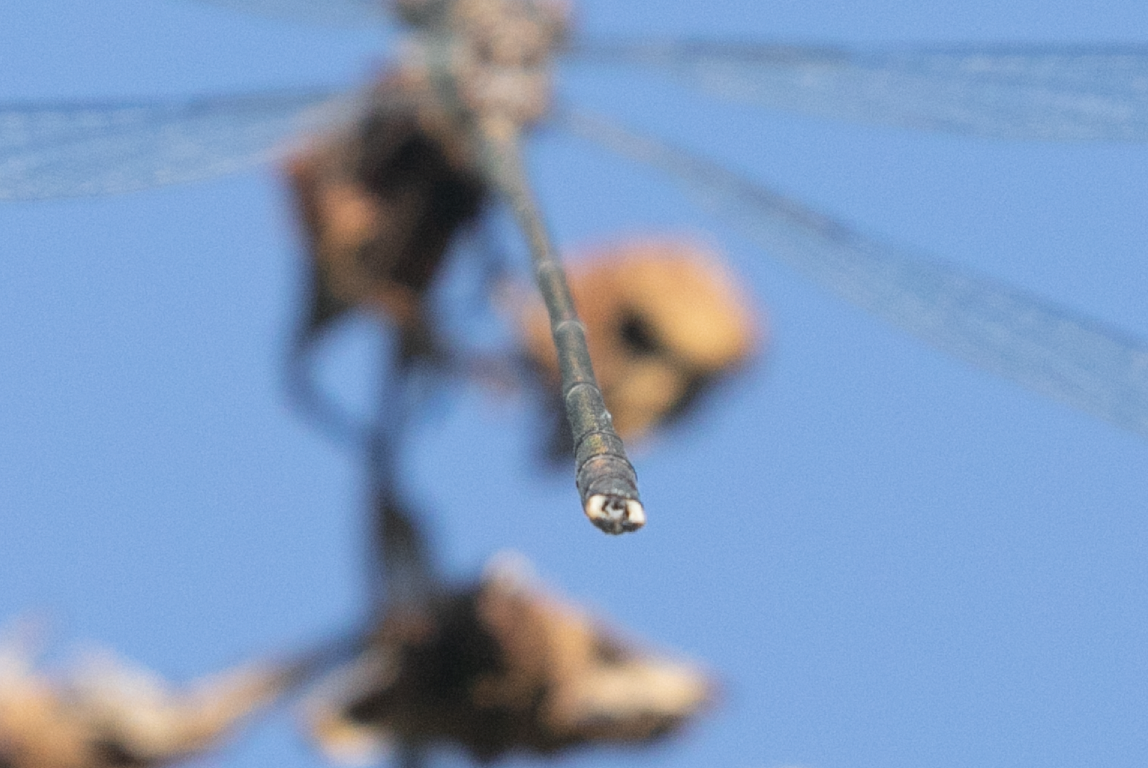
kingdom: Animalia
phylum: Arthropoda
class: Insecta
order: Odonata
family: Lestidae
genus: Chalcolestes
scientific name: Chalcolestes viridis
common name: Green emerald damselfly
